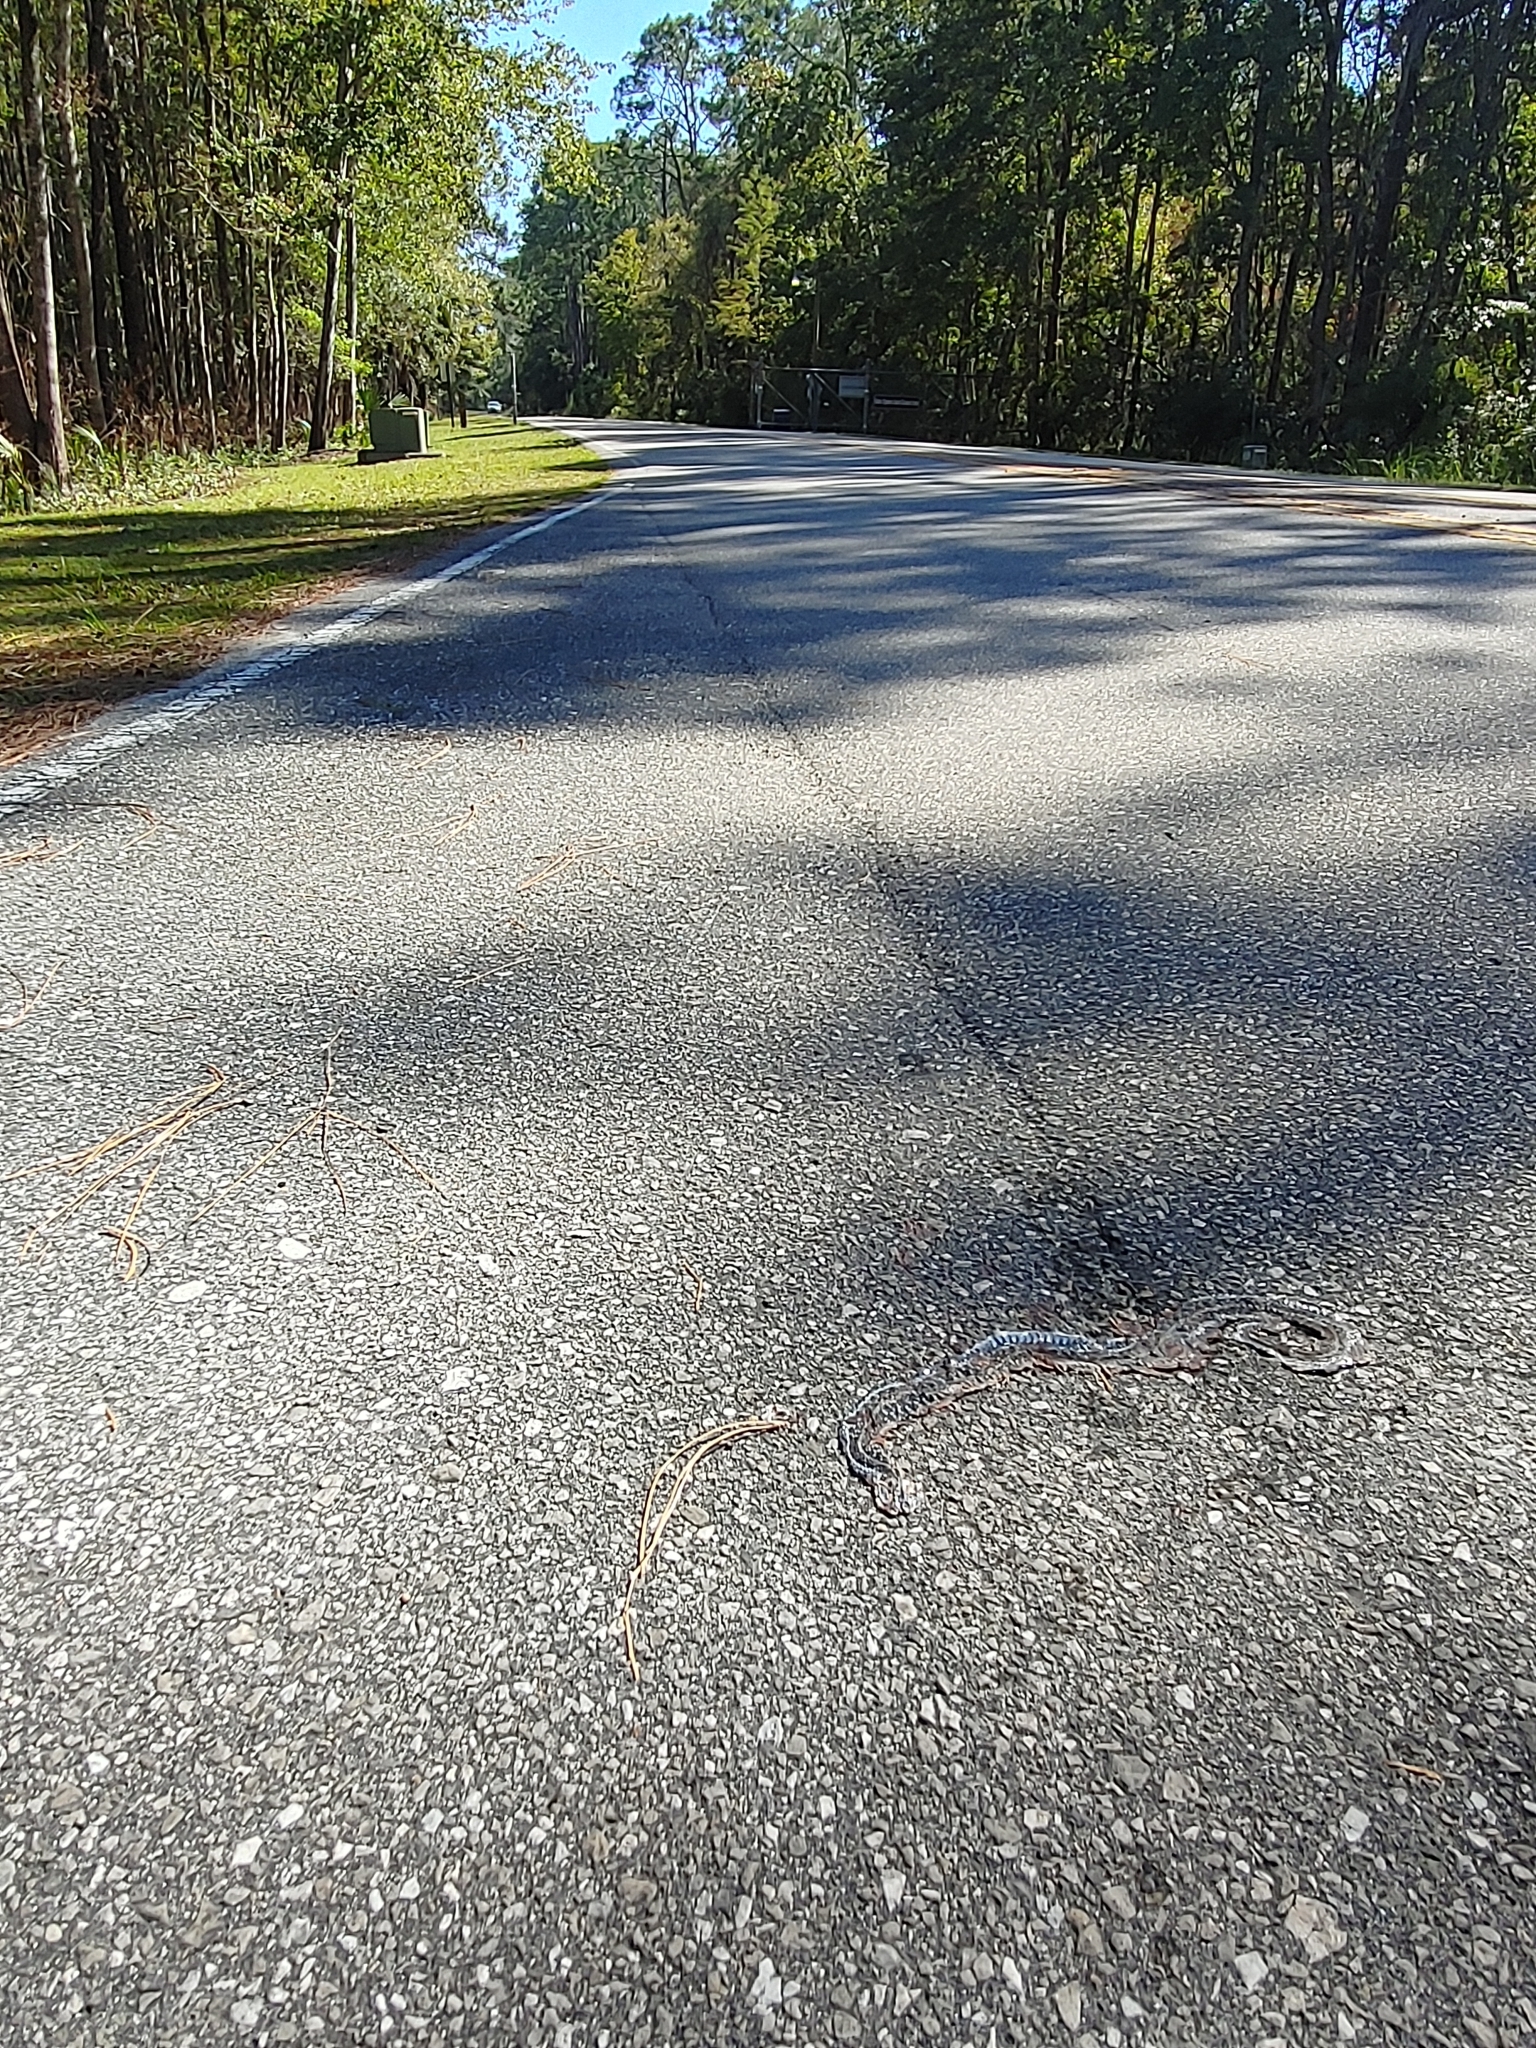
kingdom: Animalia
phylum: Chordata
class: Squamata
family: Colubridae
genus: Thamnophis
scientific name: Thamnophis sirtalis
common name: Common garter snake
